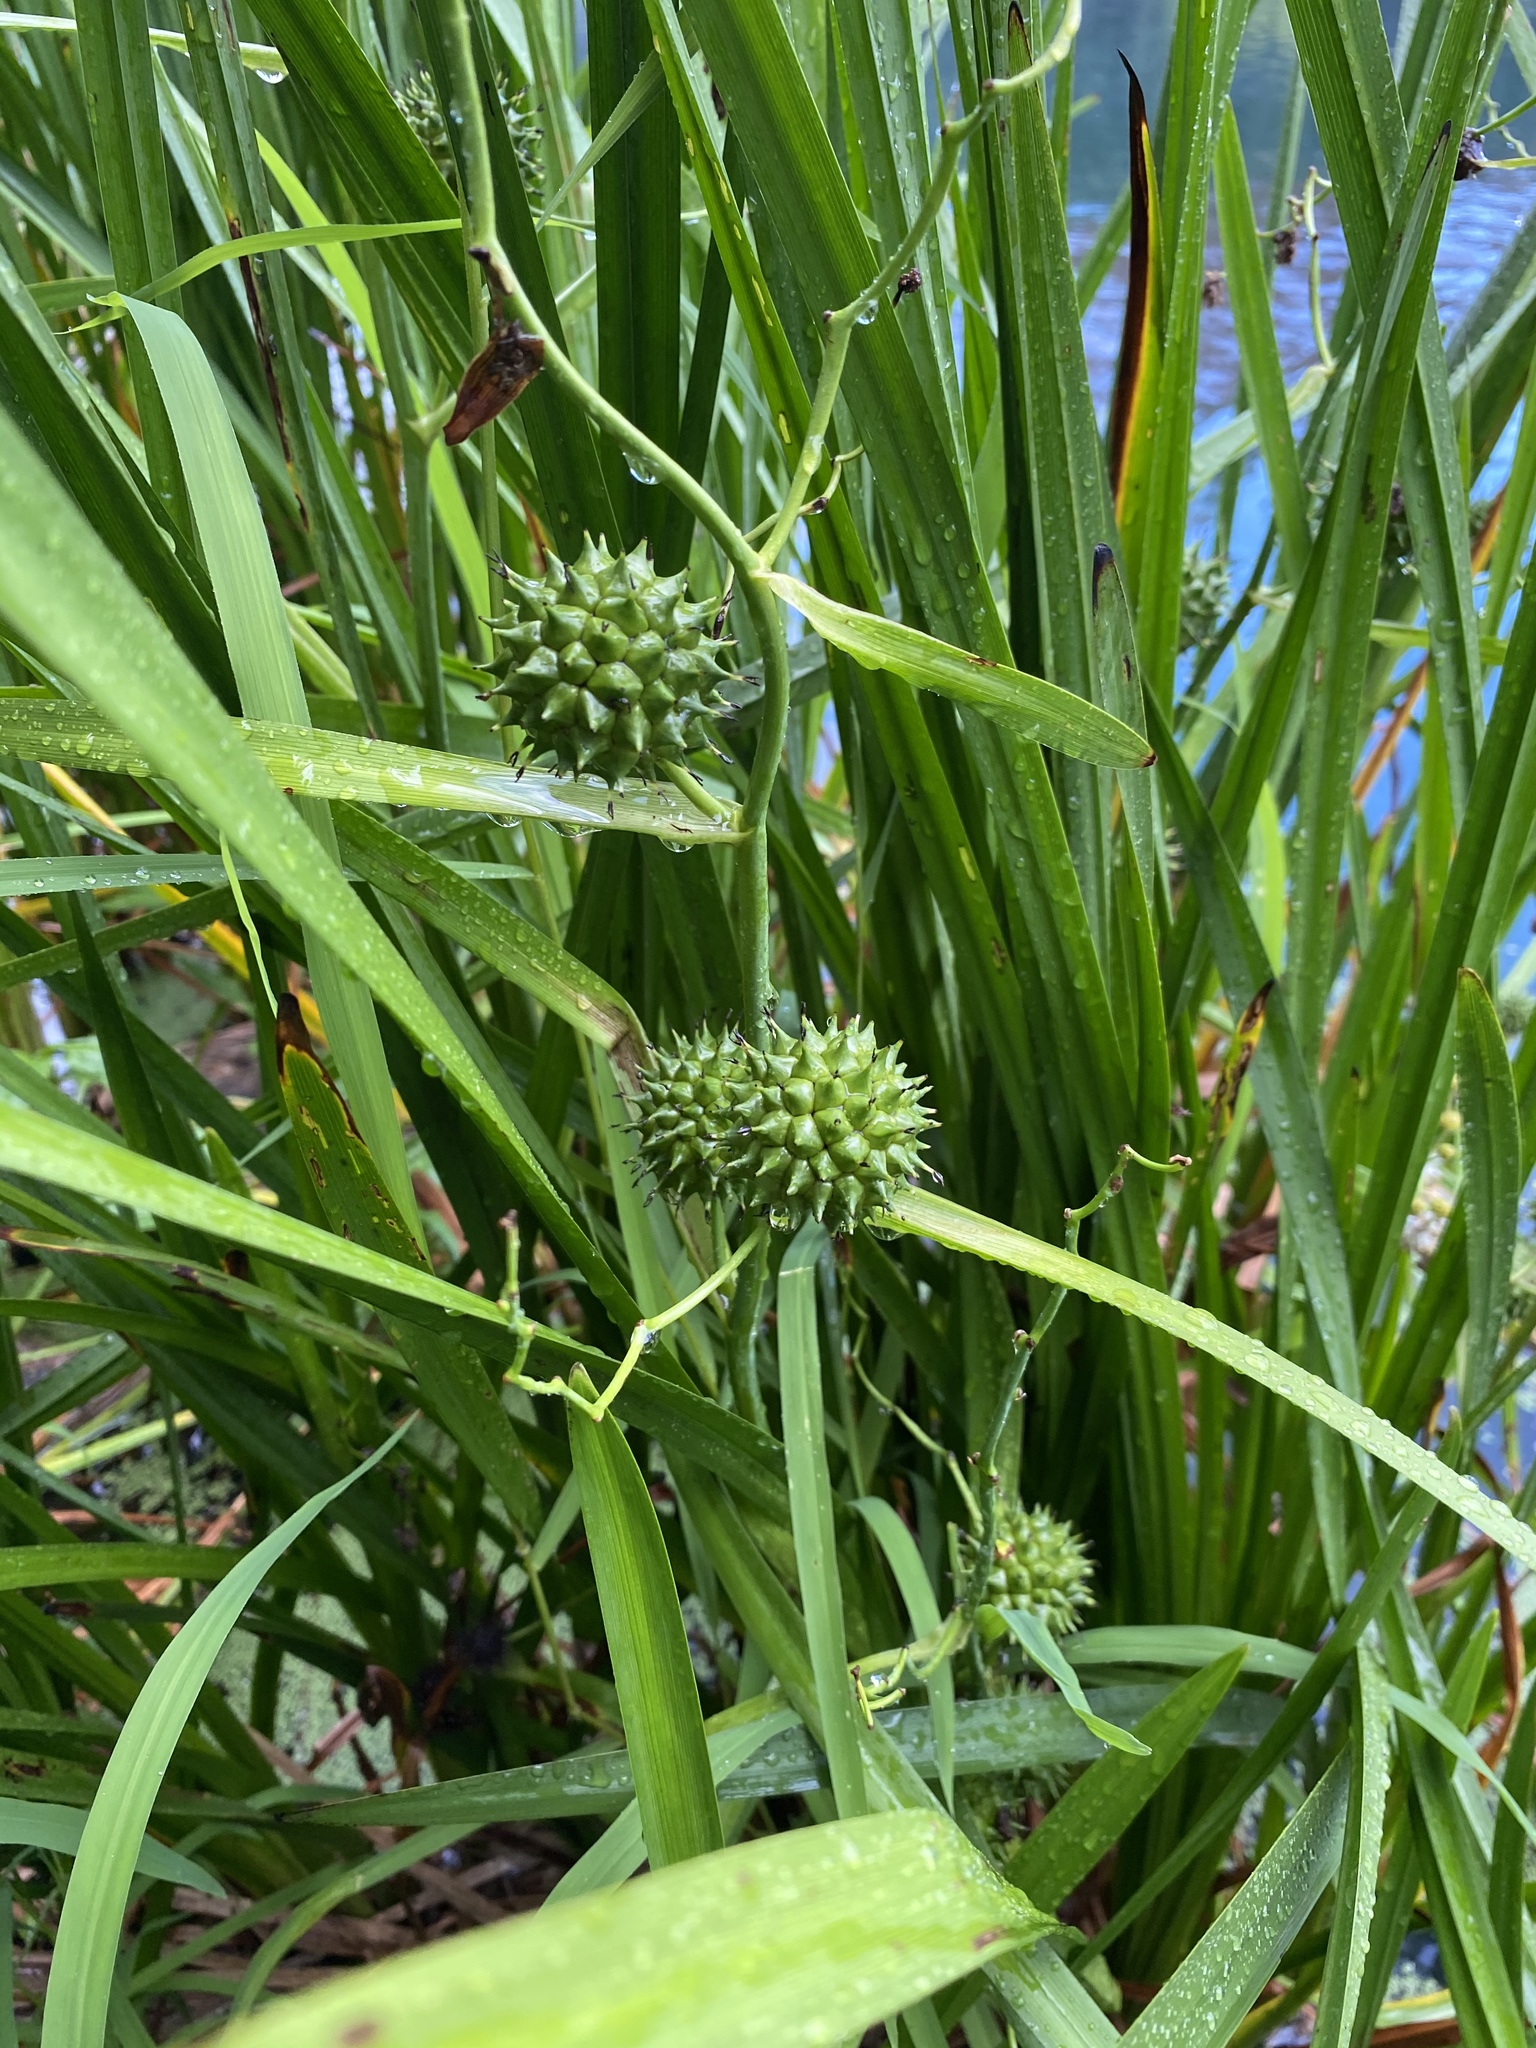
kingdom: Plantae
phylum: Tracheophyta
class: Liliopsida
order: Poales
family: Typhaceae
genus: Sparganium
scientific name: Sparganium eurycarpum
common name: Broad-fruited burreed
